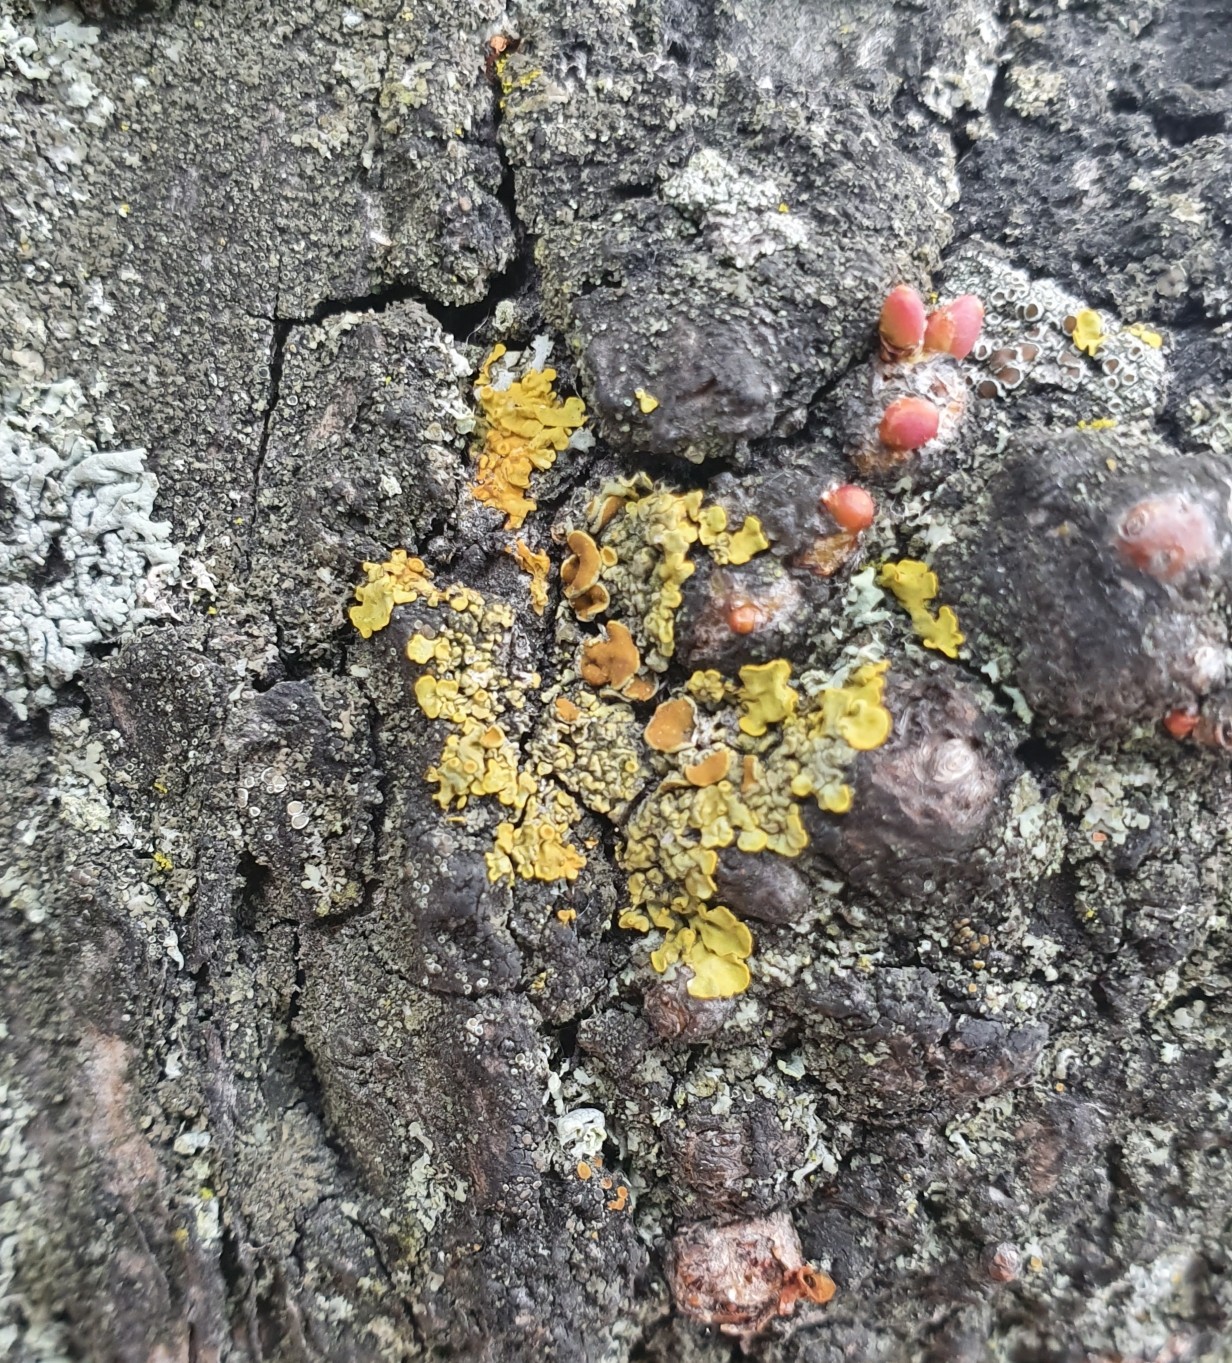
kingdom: Fungi
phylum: Ascomycota
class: Lecanoromycetes
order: Teloschistales
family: Teloschistaceae
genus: Xanthoria
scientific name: Xanthoria parietina
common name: Common orange lichen
